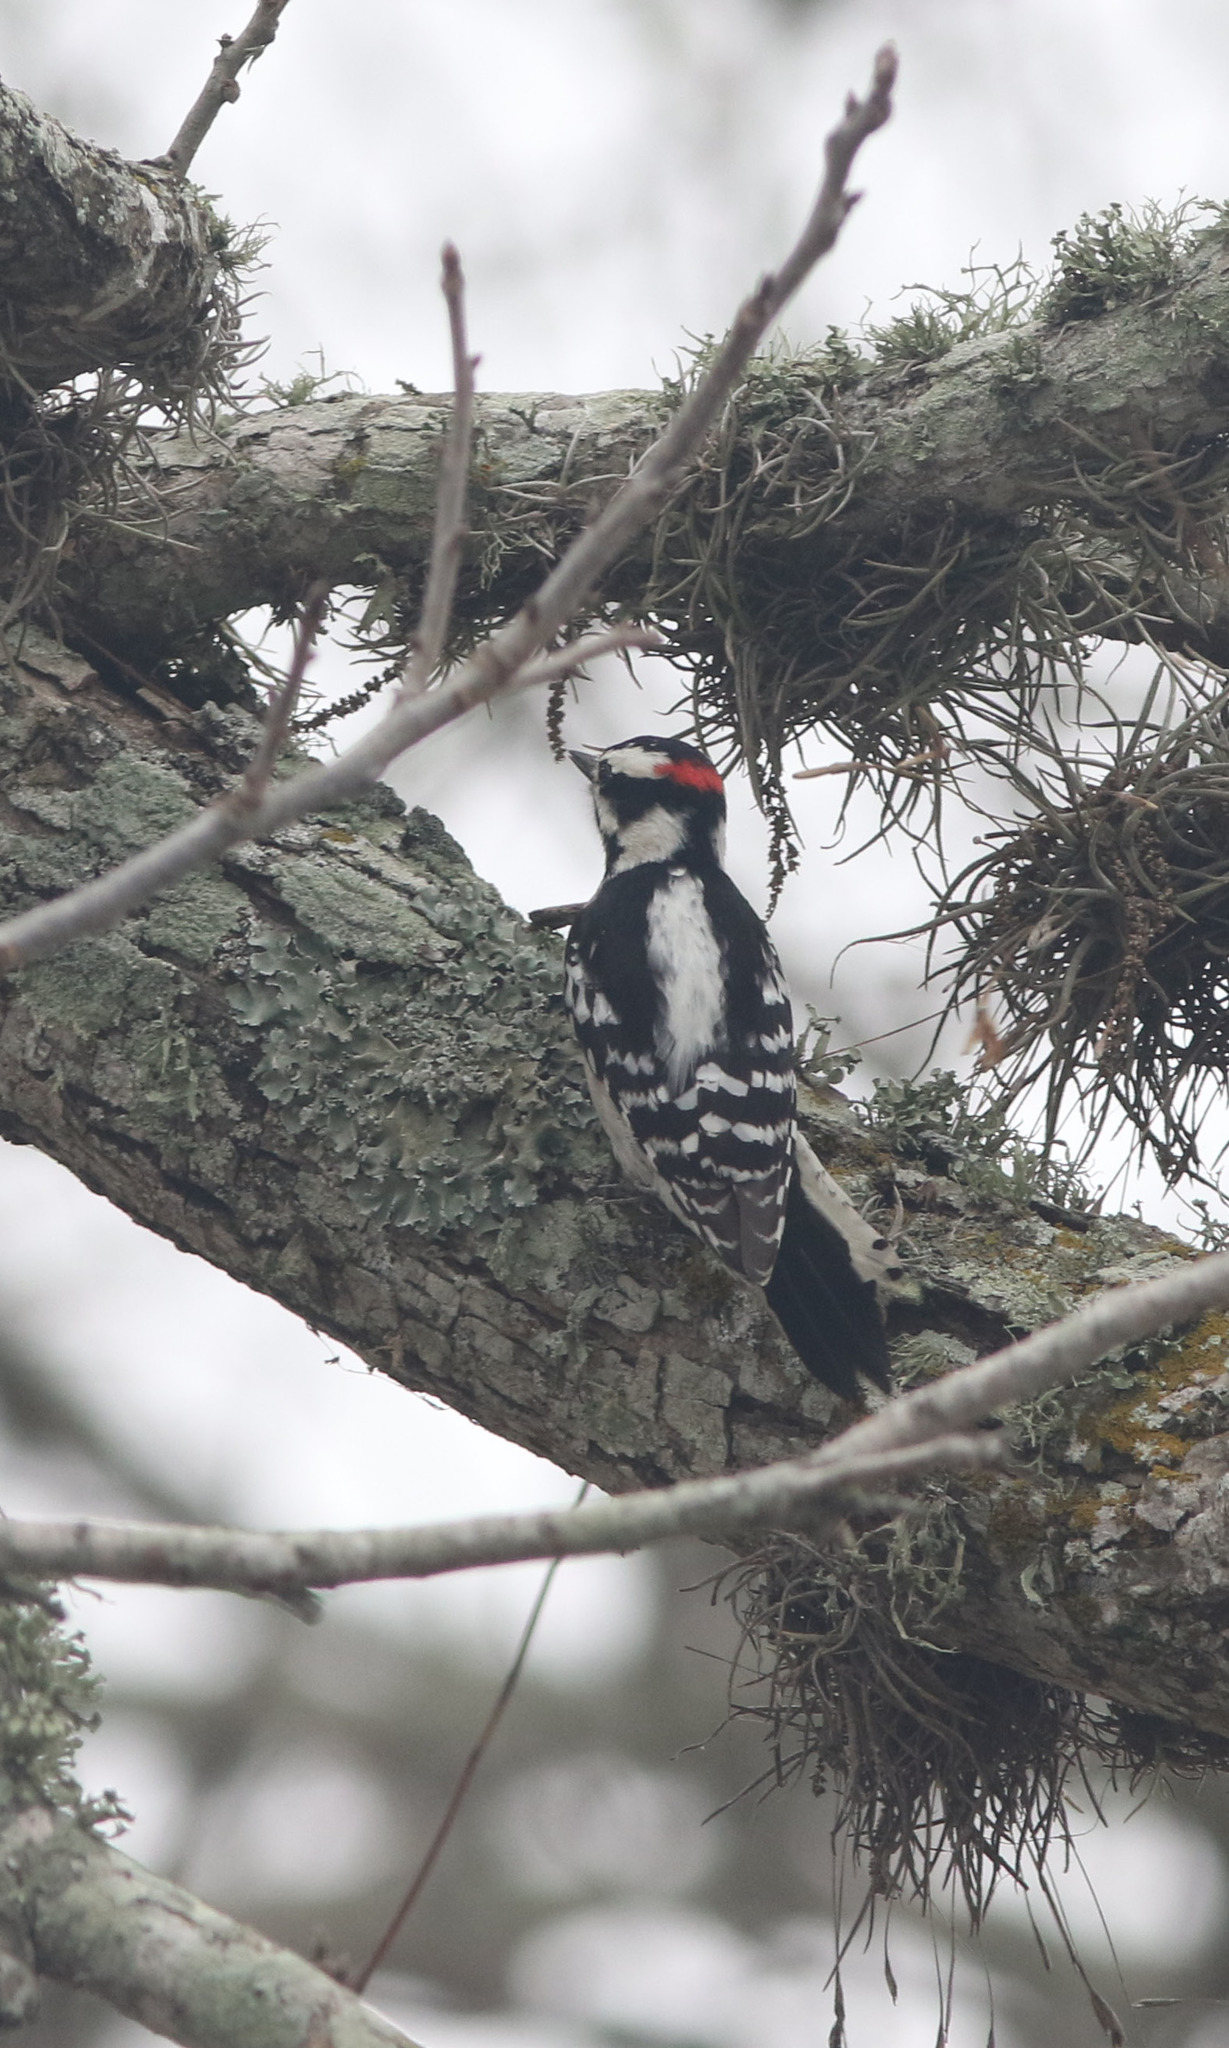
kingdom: Animalia
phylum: Chordata
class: Aves
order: Piciformes
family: Picidae
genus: Dryobates
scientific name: Dryobates pubescens
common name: Downy woodpecker
